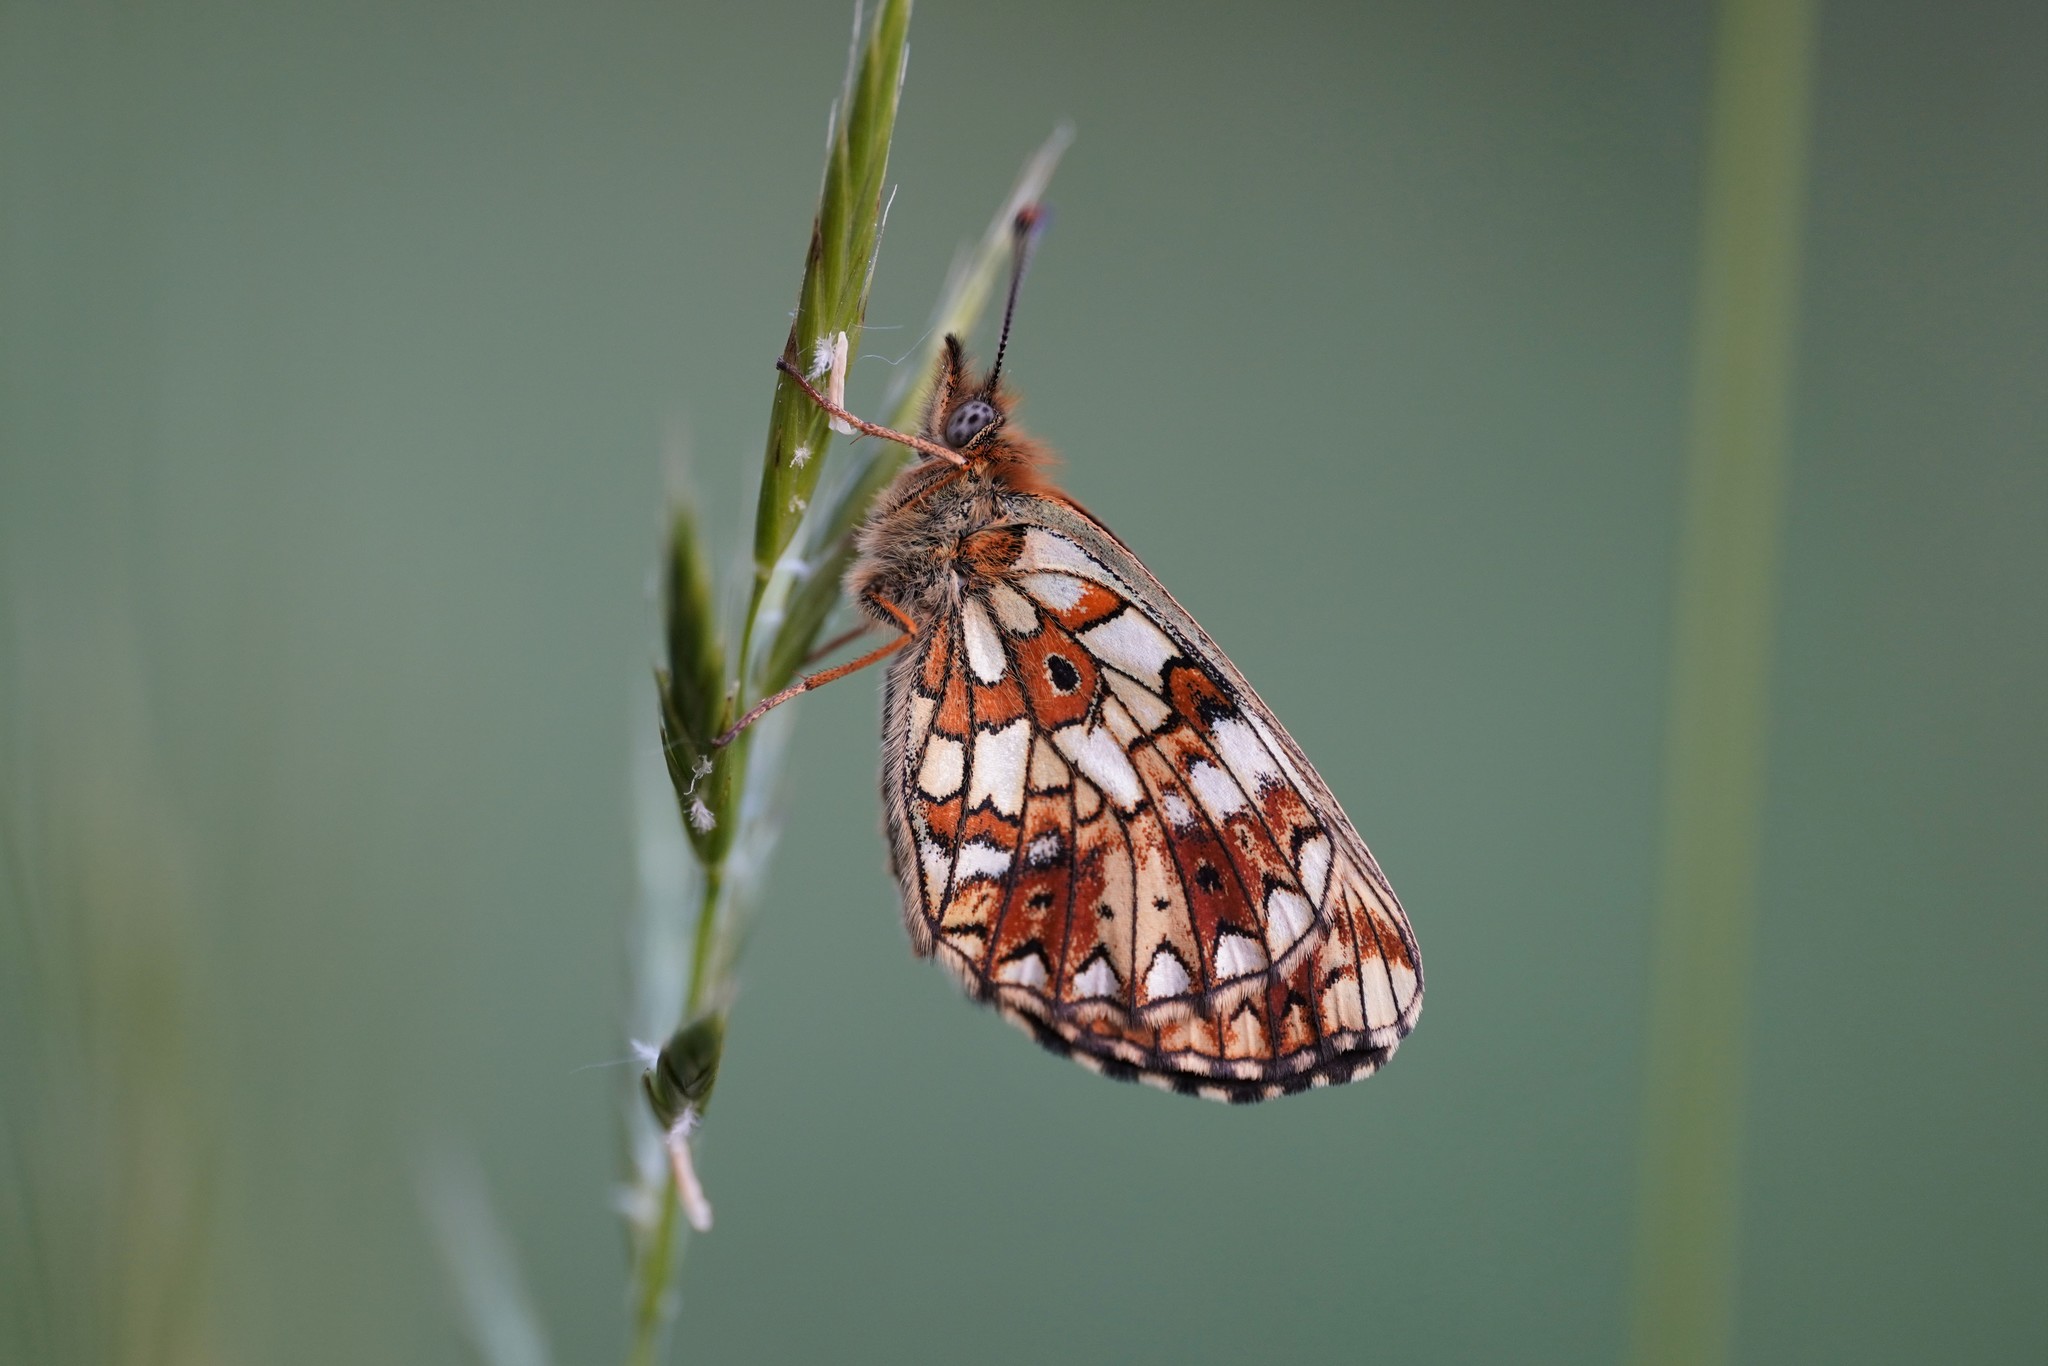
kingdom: Animalia
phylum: Arthropoda
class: Insecta
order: Lepidoptera
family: Nymphalidae
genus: Boloria
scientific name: Boloria selene
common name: Small pearl-bordered fritillary
